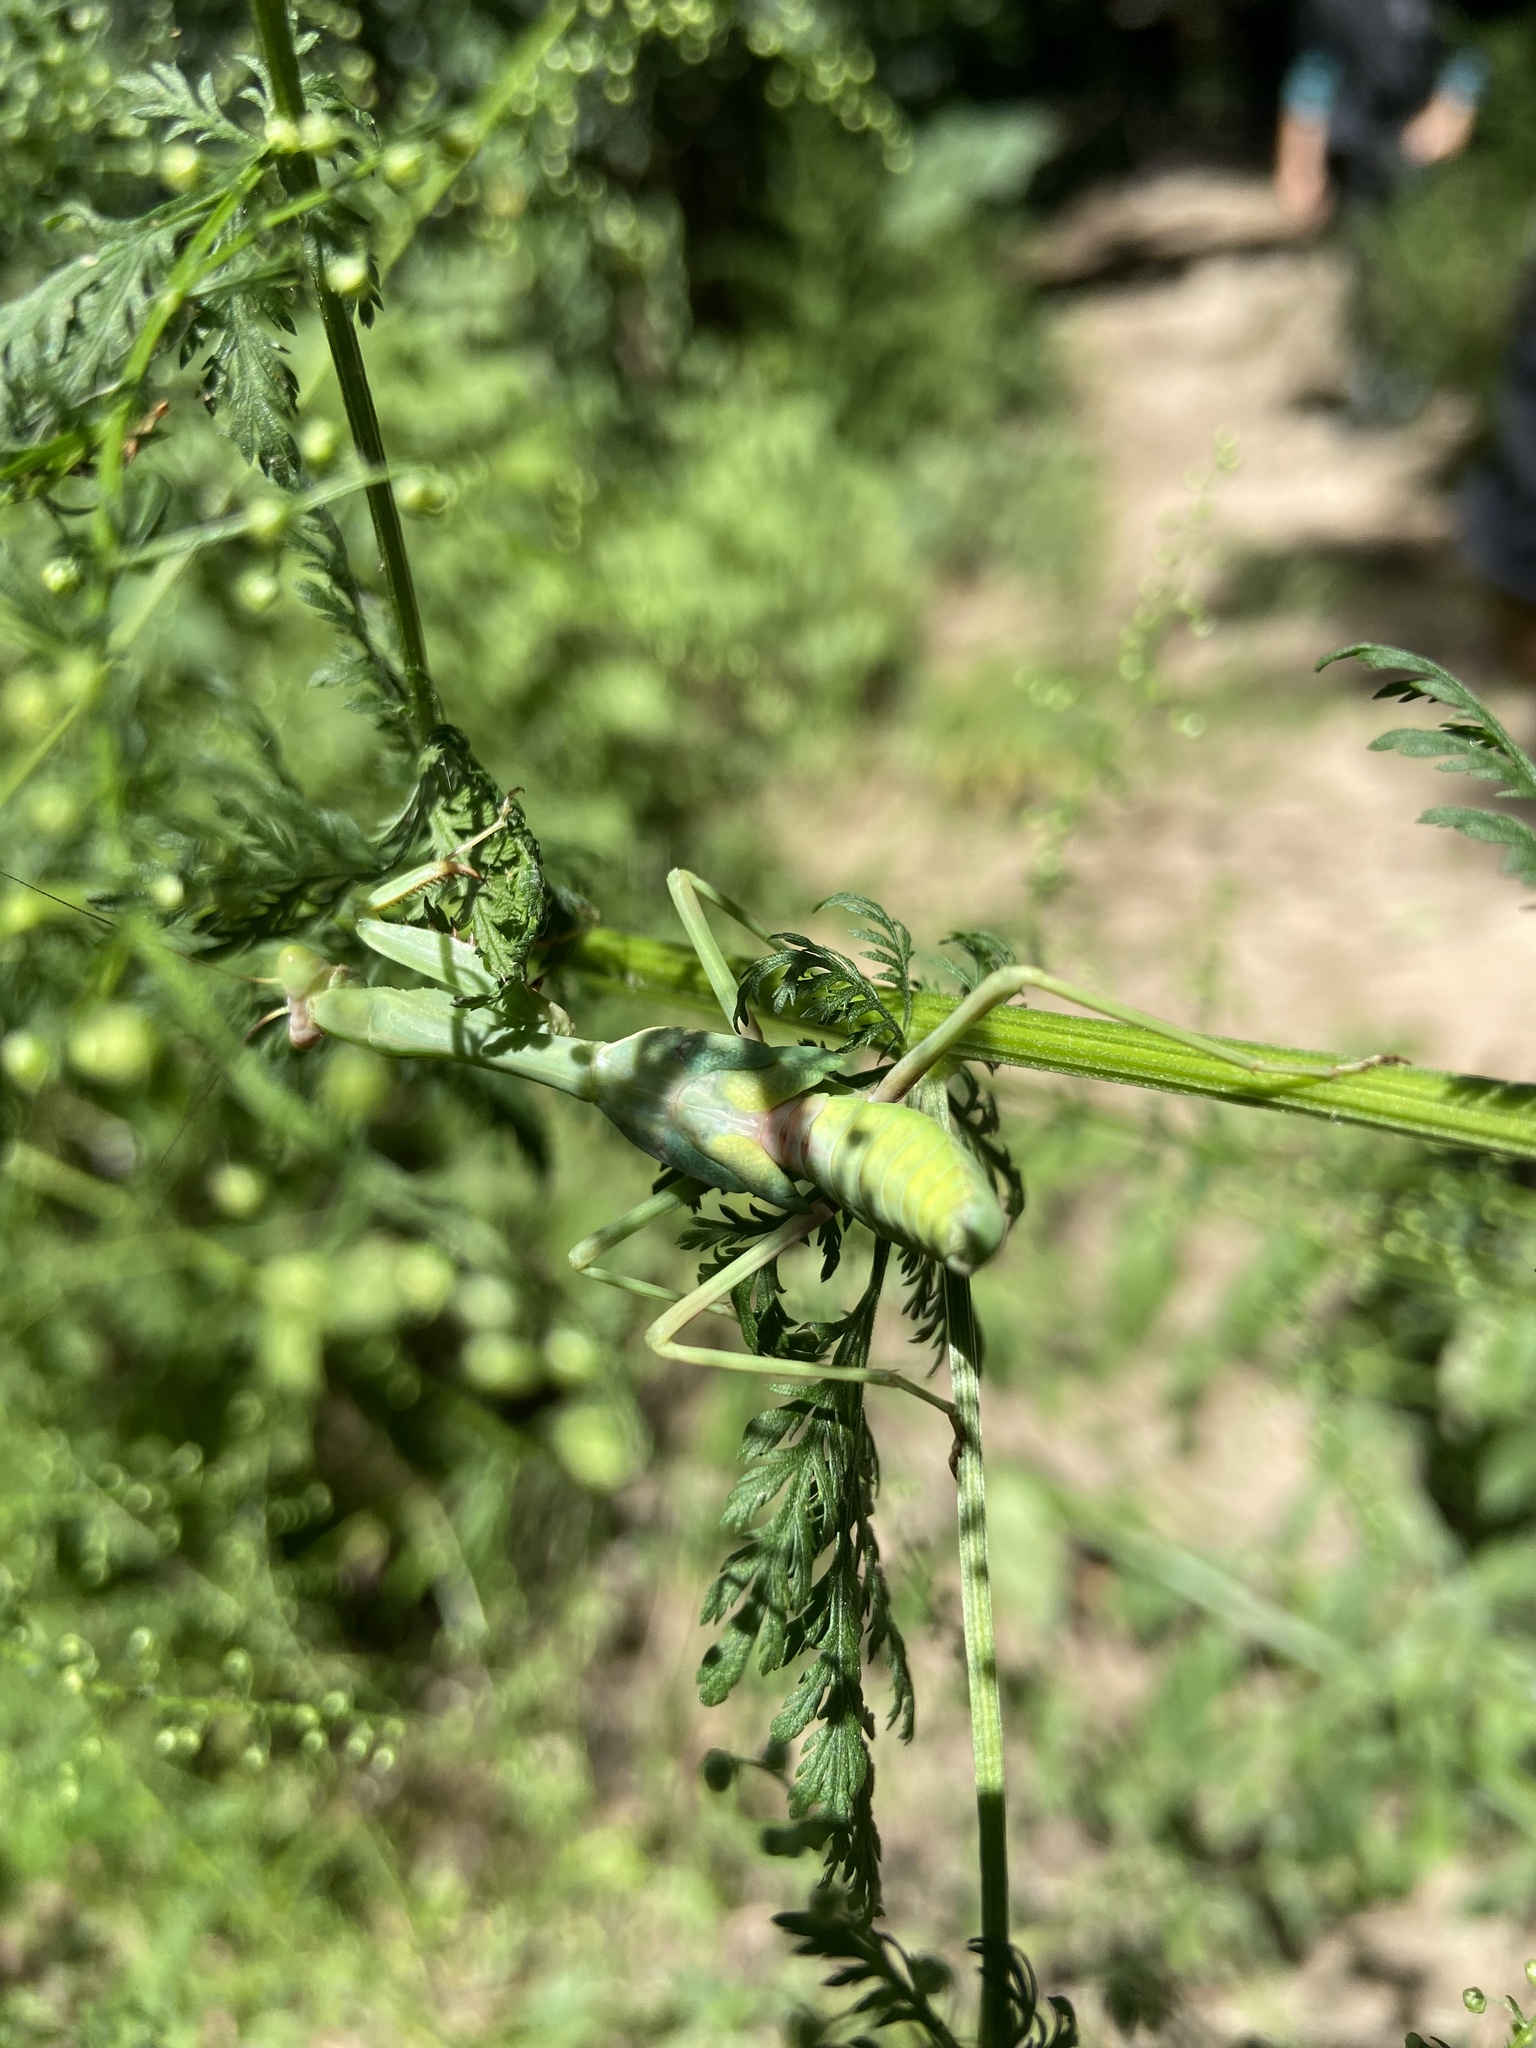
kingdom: Animalia
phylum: Arthropoda
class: Insecta
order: Mantodea
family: Mantidae
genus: Stagmatoptera
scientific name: Stagmatoptera hyaloptera
